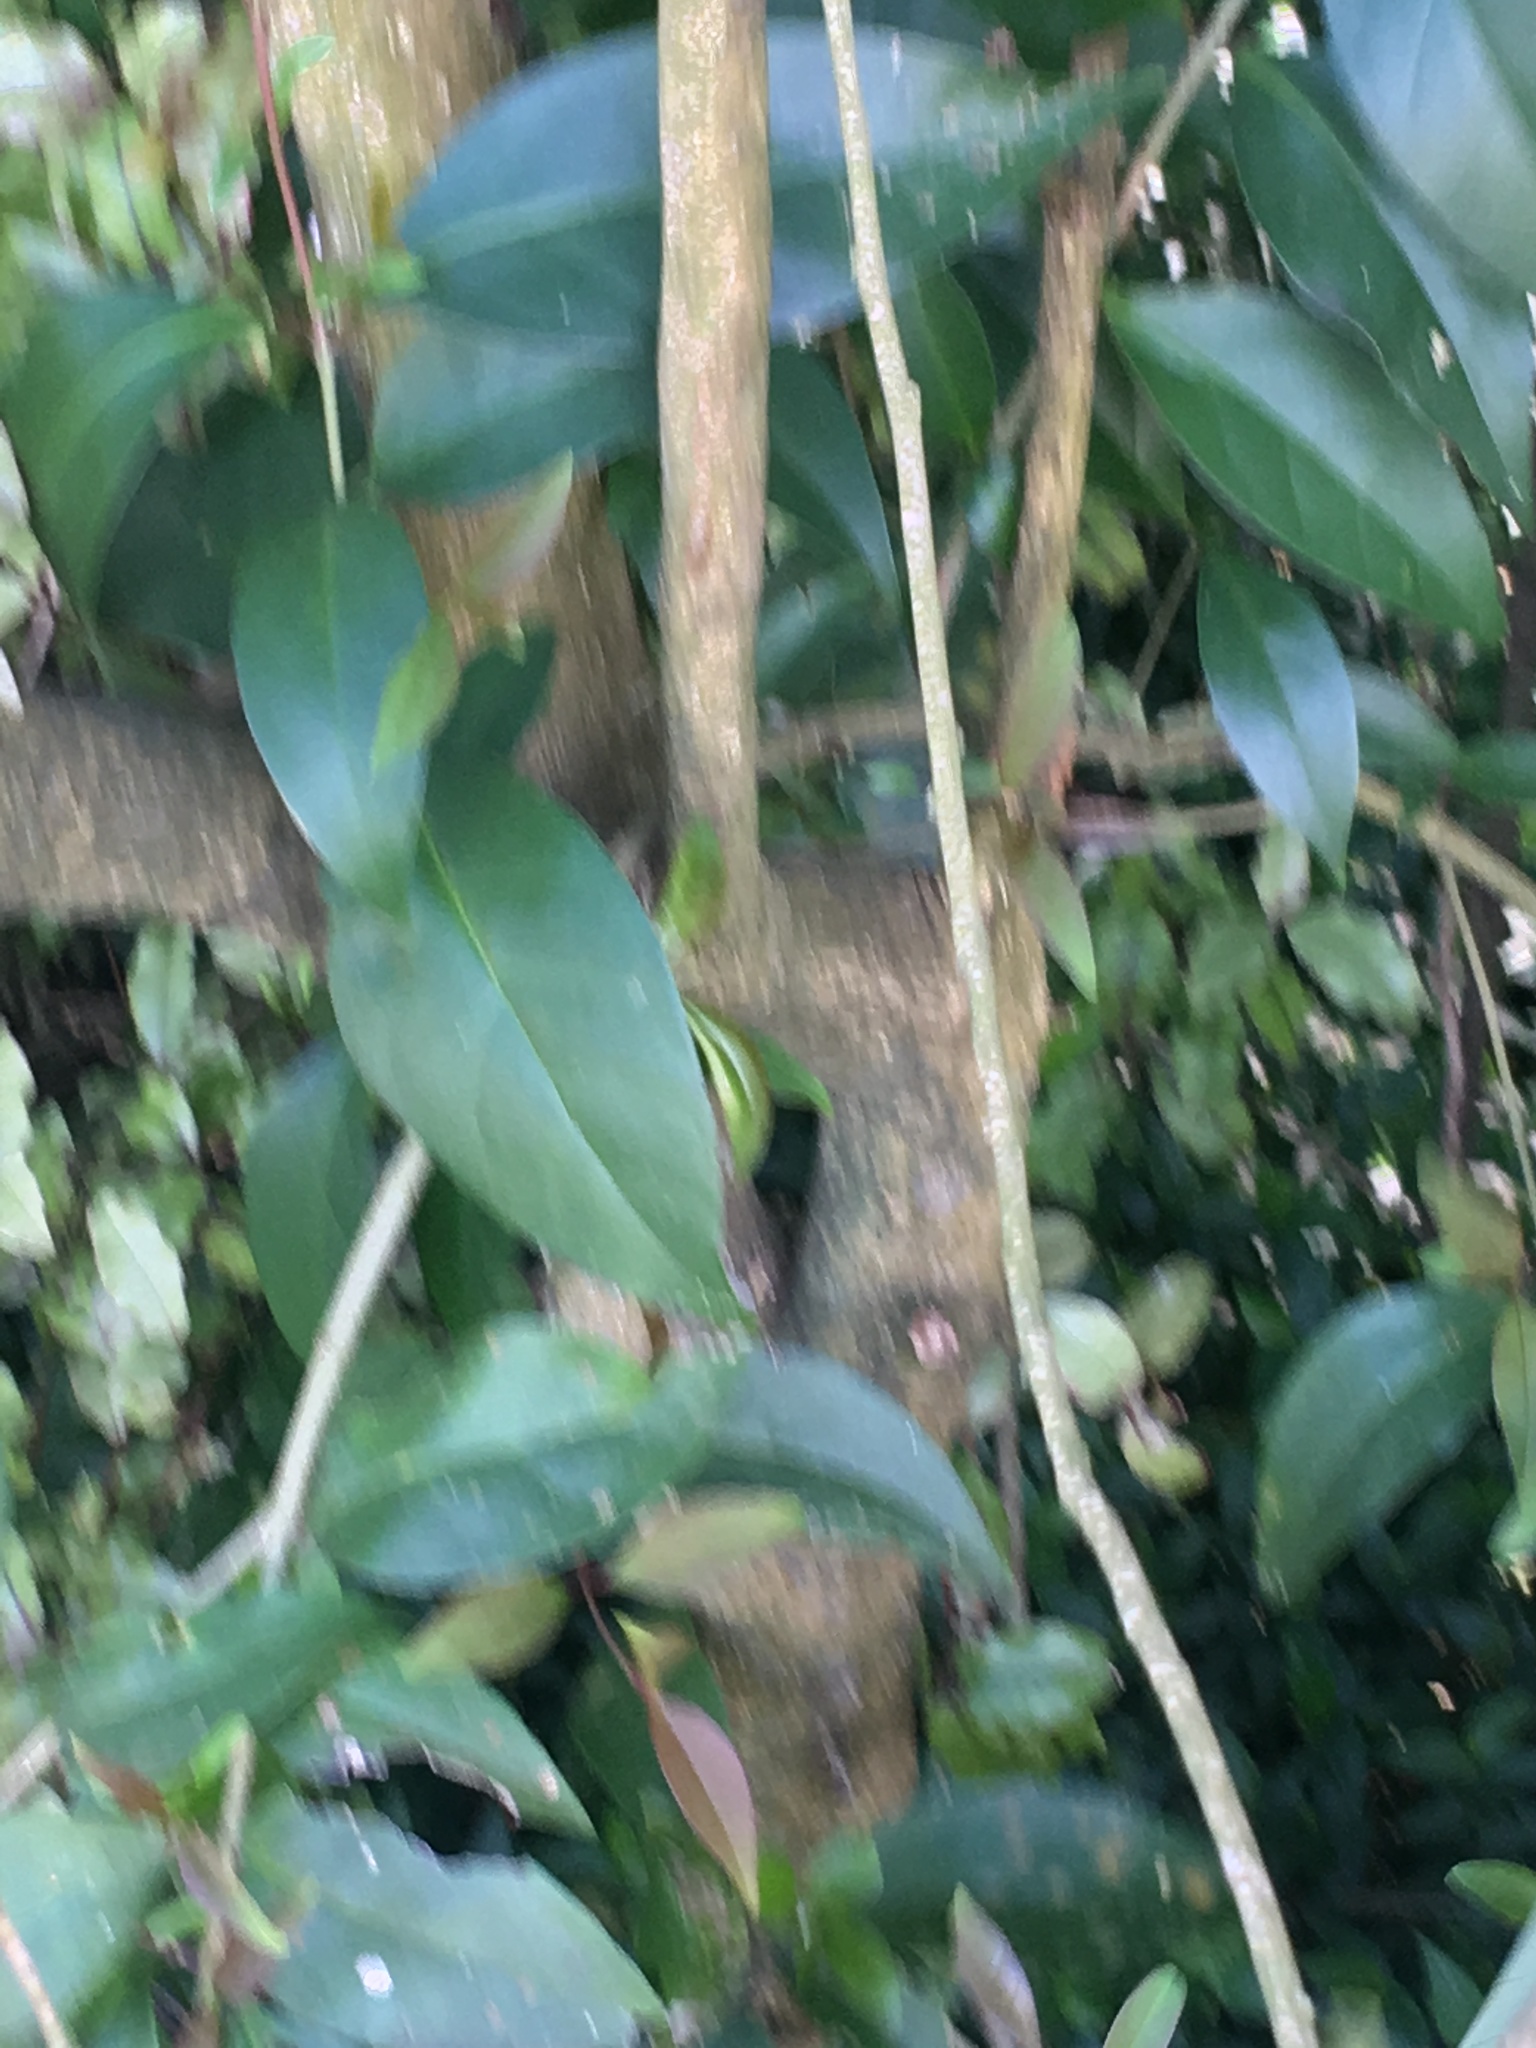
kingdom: Plantae
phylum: Tracheophyta
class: Magnoliopsida
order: Lamiales
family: Oleaceae
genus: Ligustrum
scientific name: Ligustrum lucidum
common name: Glossy privet
